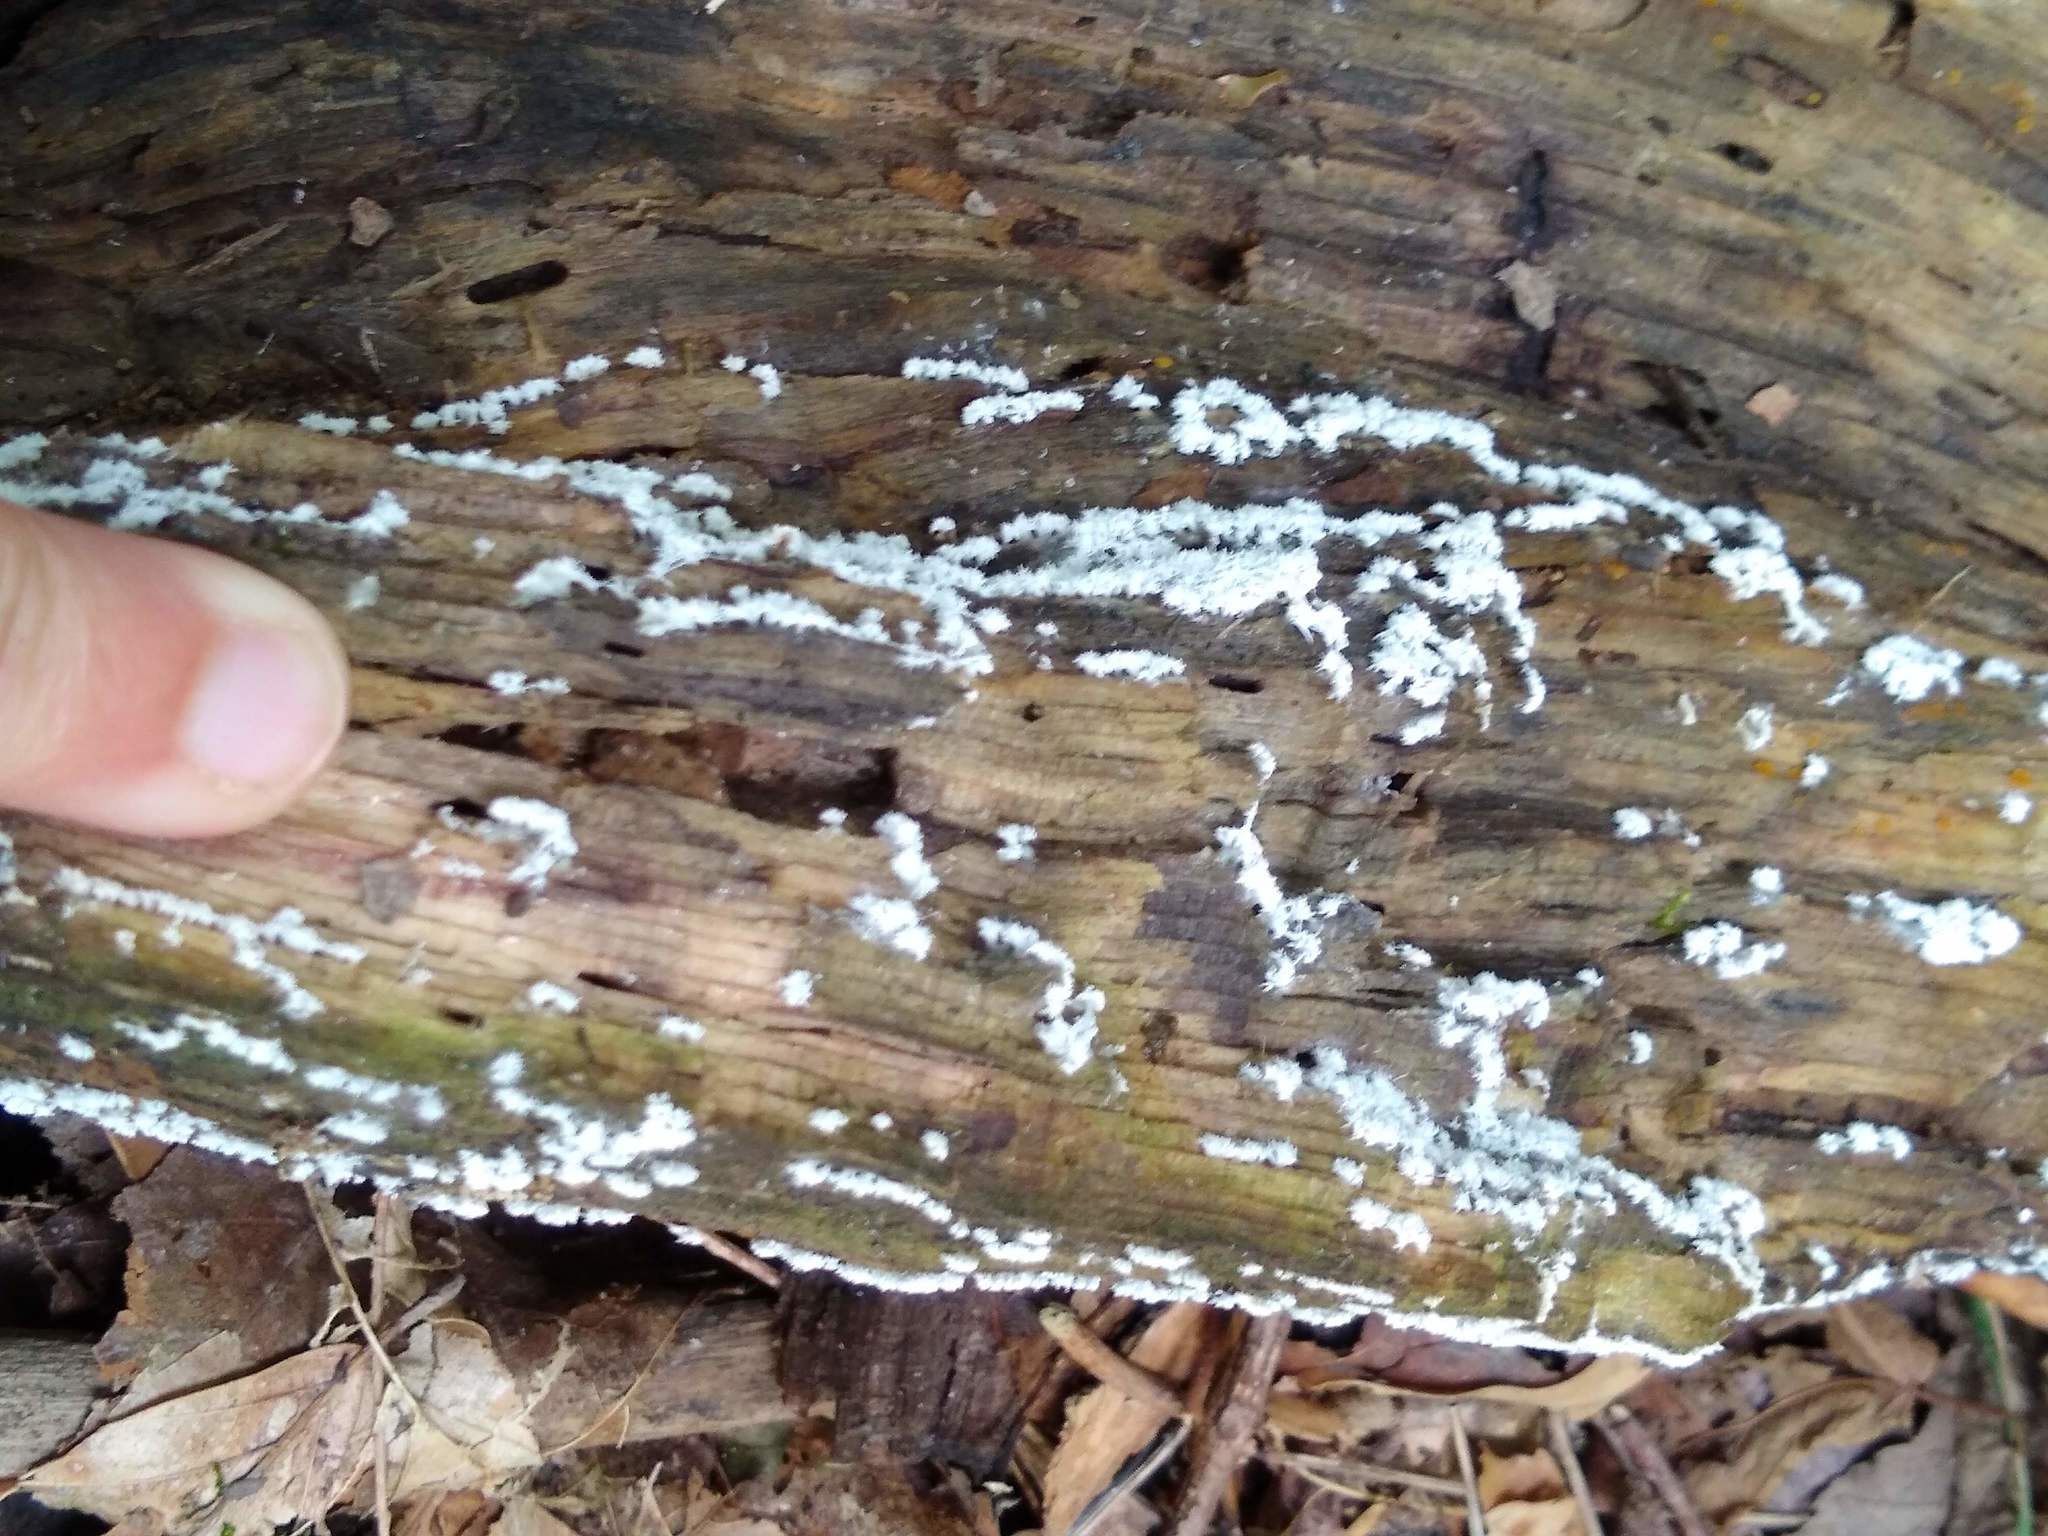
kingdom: Protozoa
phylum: Mycetozoa
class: Protosteliomycetes
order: Ceratiomyxales
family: Ceratiomyxaceae
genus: Ceratiomyxa
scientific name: Ceratiomyxa fruticulosa
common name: Honeycomb coral slime mold
